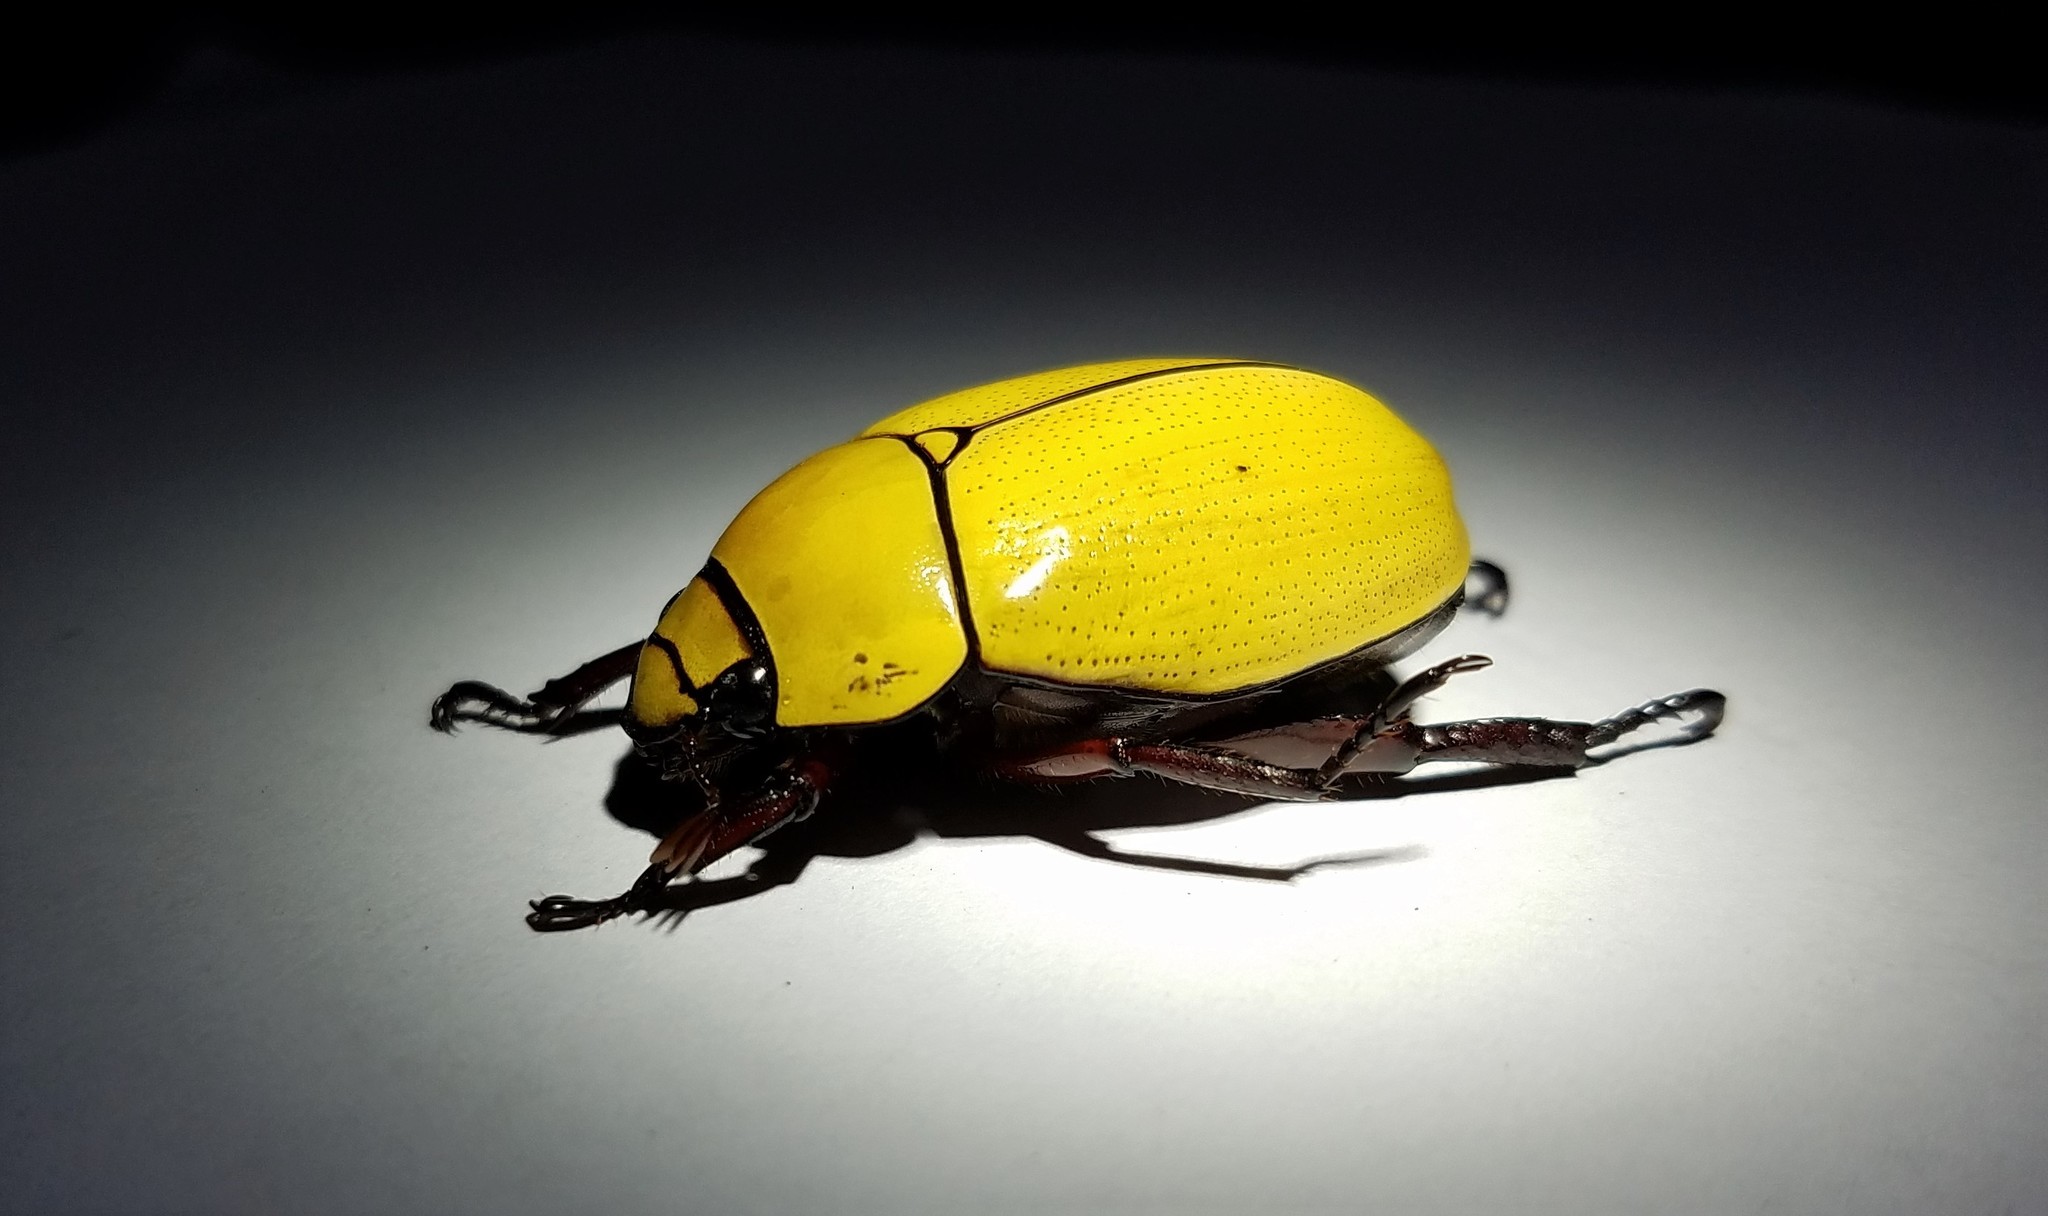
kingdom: Animalia
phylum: Arthropoda
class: Insecta
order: Coleoptera
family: Scarabaeidae
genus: Macropoides
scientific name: Macropoides crassipes
